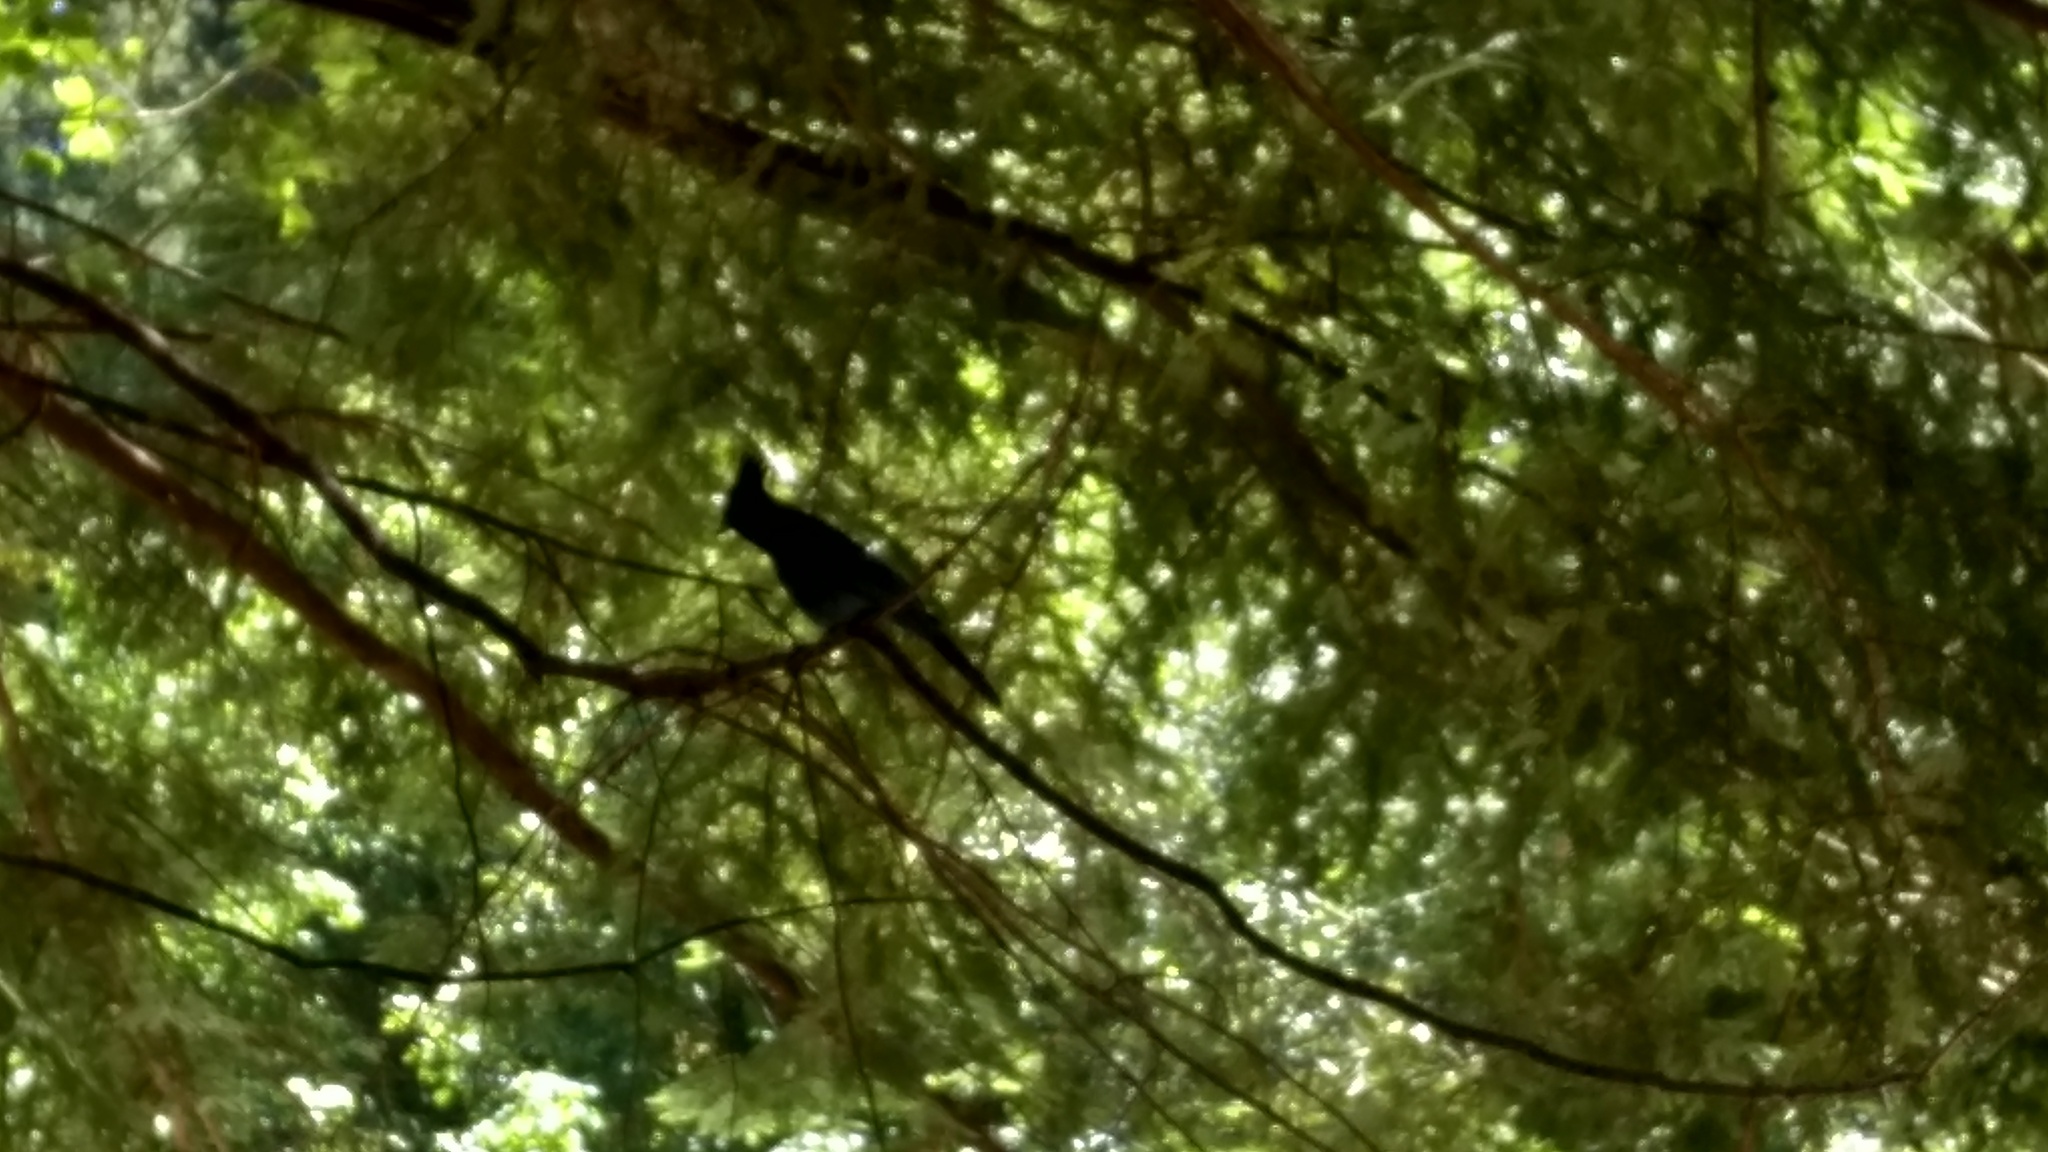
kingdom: Animalia
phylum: Chordata
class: Aves
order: Passeriformes
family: Corvidae
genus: Cyanocitta
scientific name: Cyanocitta stelleri
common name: Steller's jay
